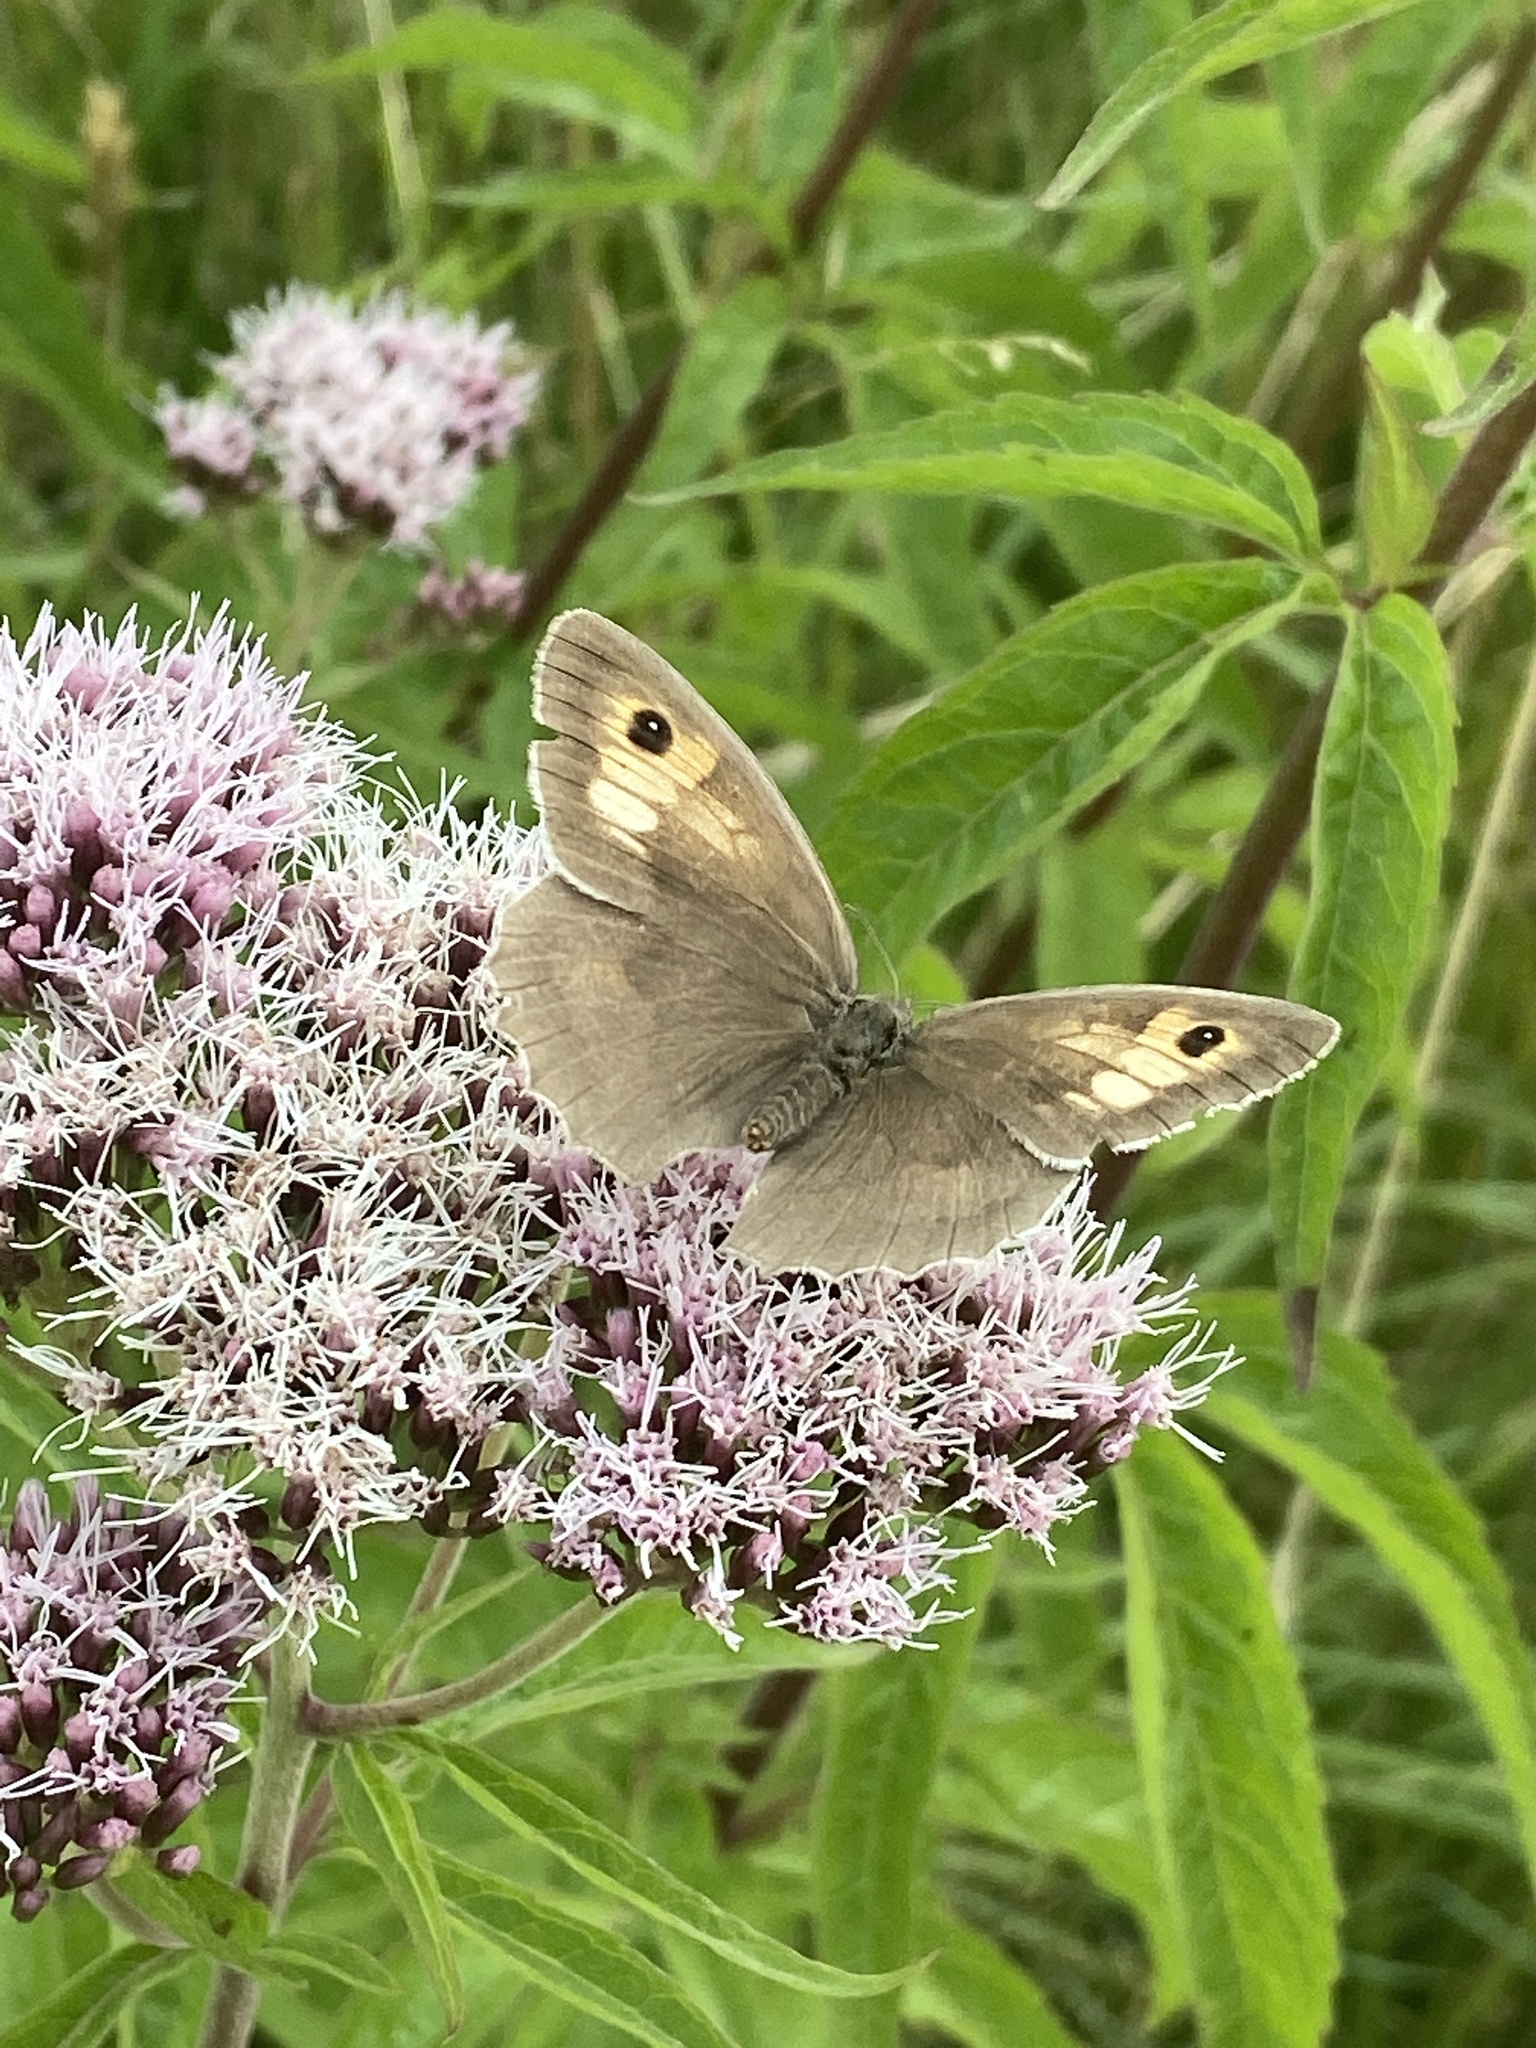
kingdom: Animalia
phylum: Arthropoda
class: Insecta
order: Lepidoptera
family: Nymphalidae
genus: Maniola
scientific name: Maniola jurtina
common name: Meadow brown
